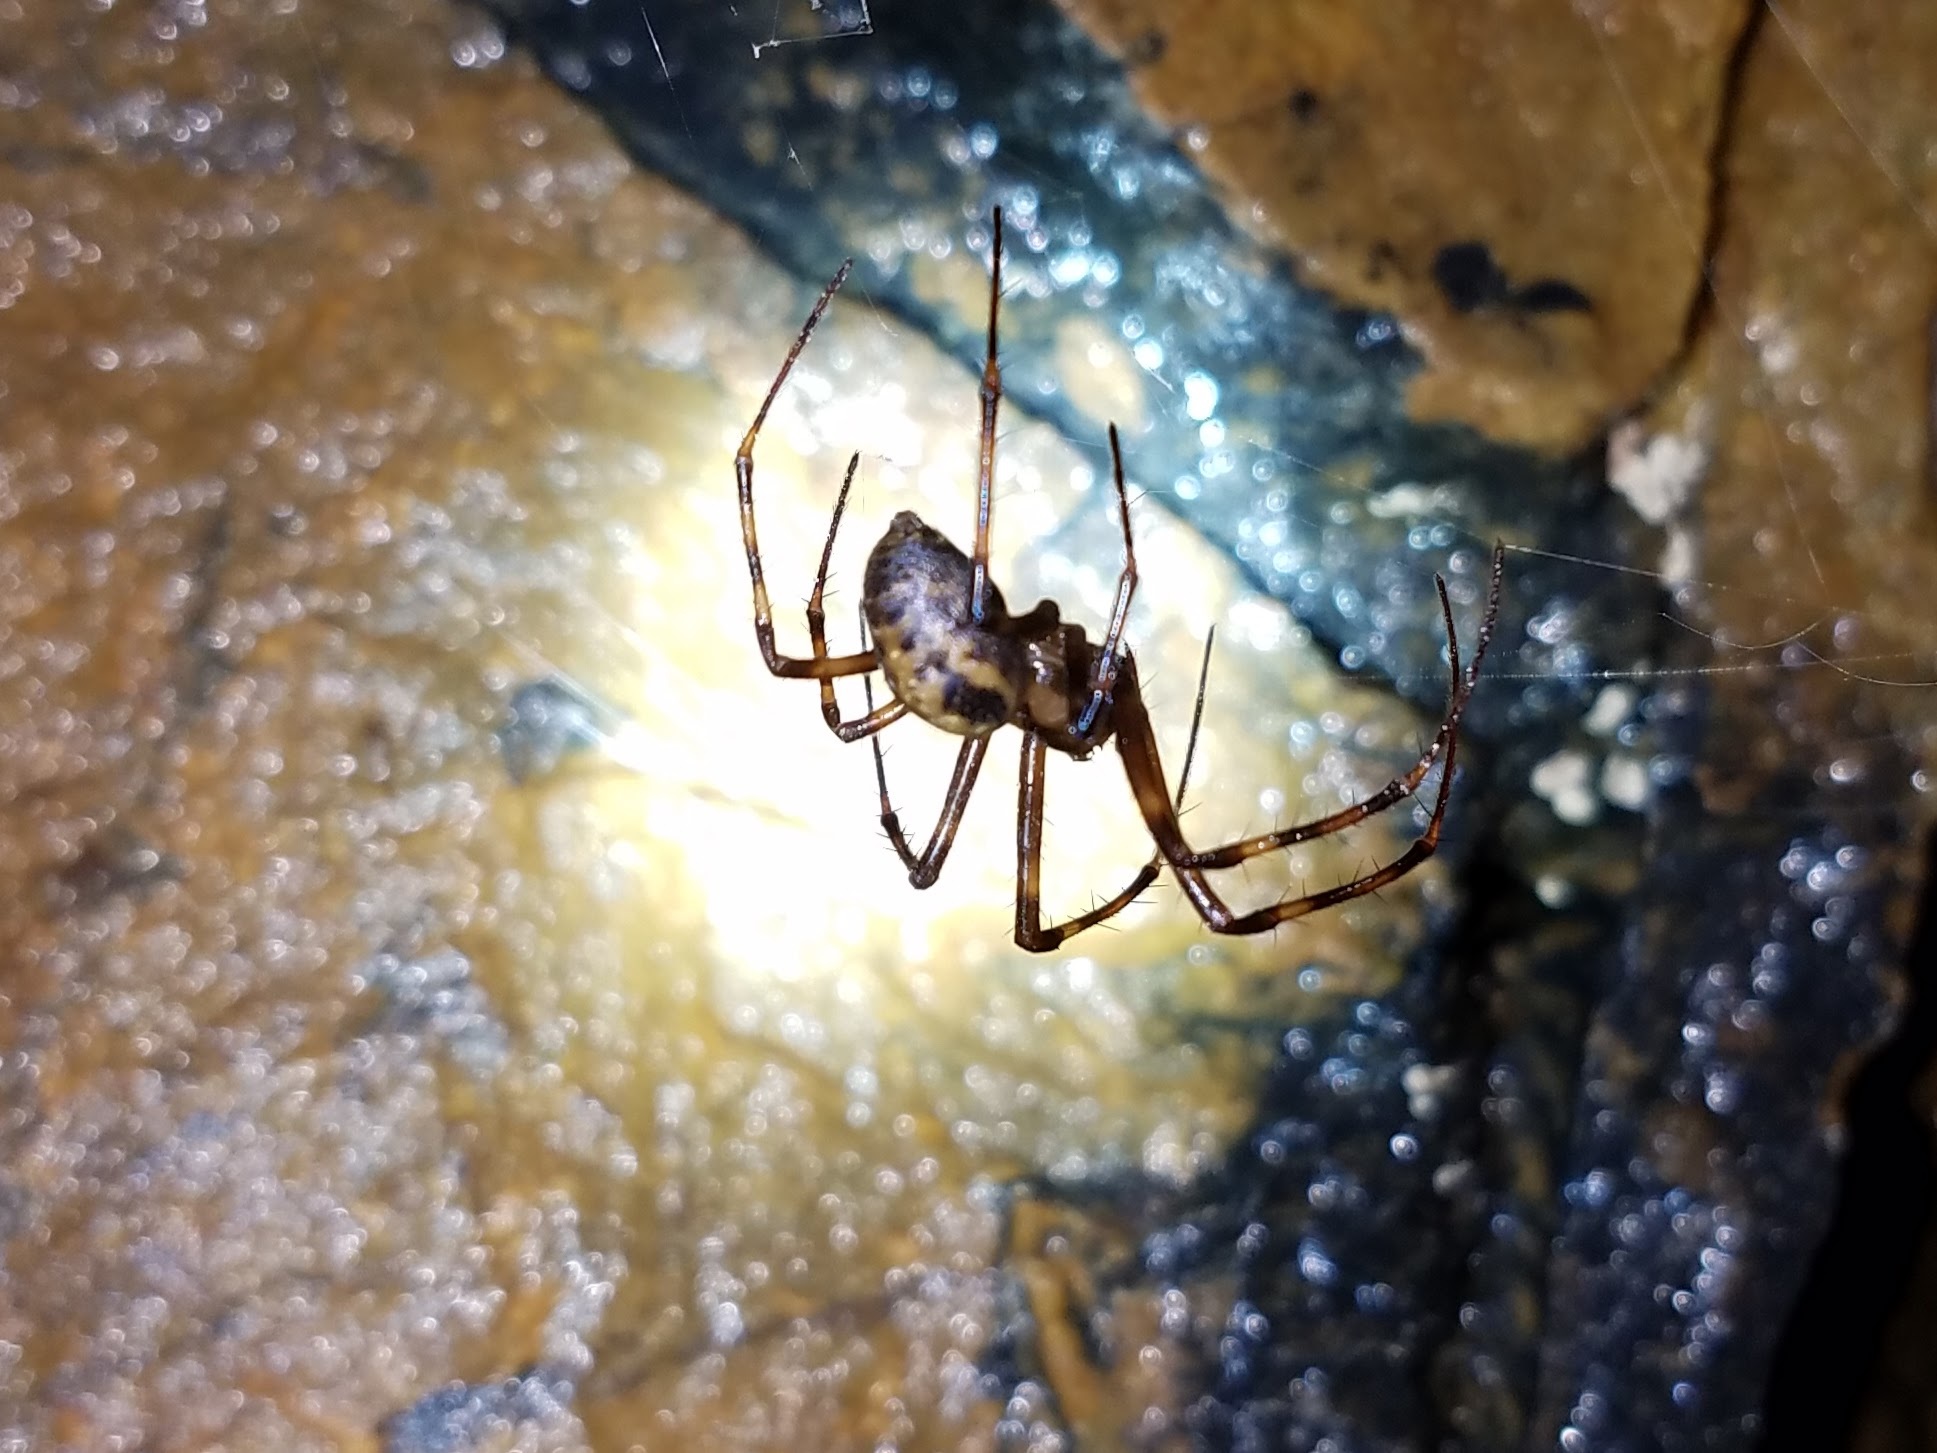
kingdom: Animalia
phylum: Arthropoda
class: Arachnida
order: Araneae
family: Tetragnathidae
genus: Meta
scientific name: Meta ovalis
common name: Eastern cave long-jawed spider
